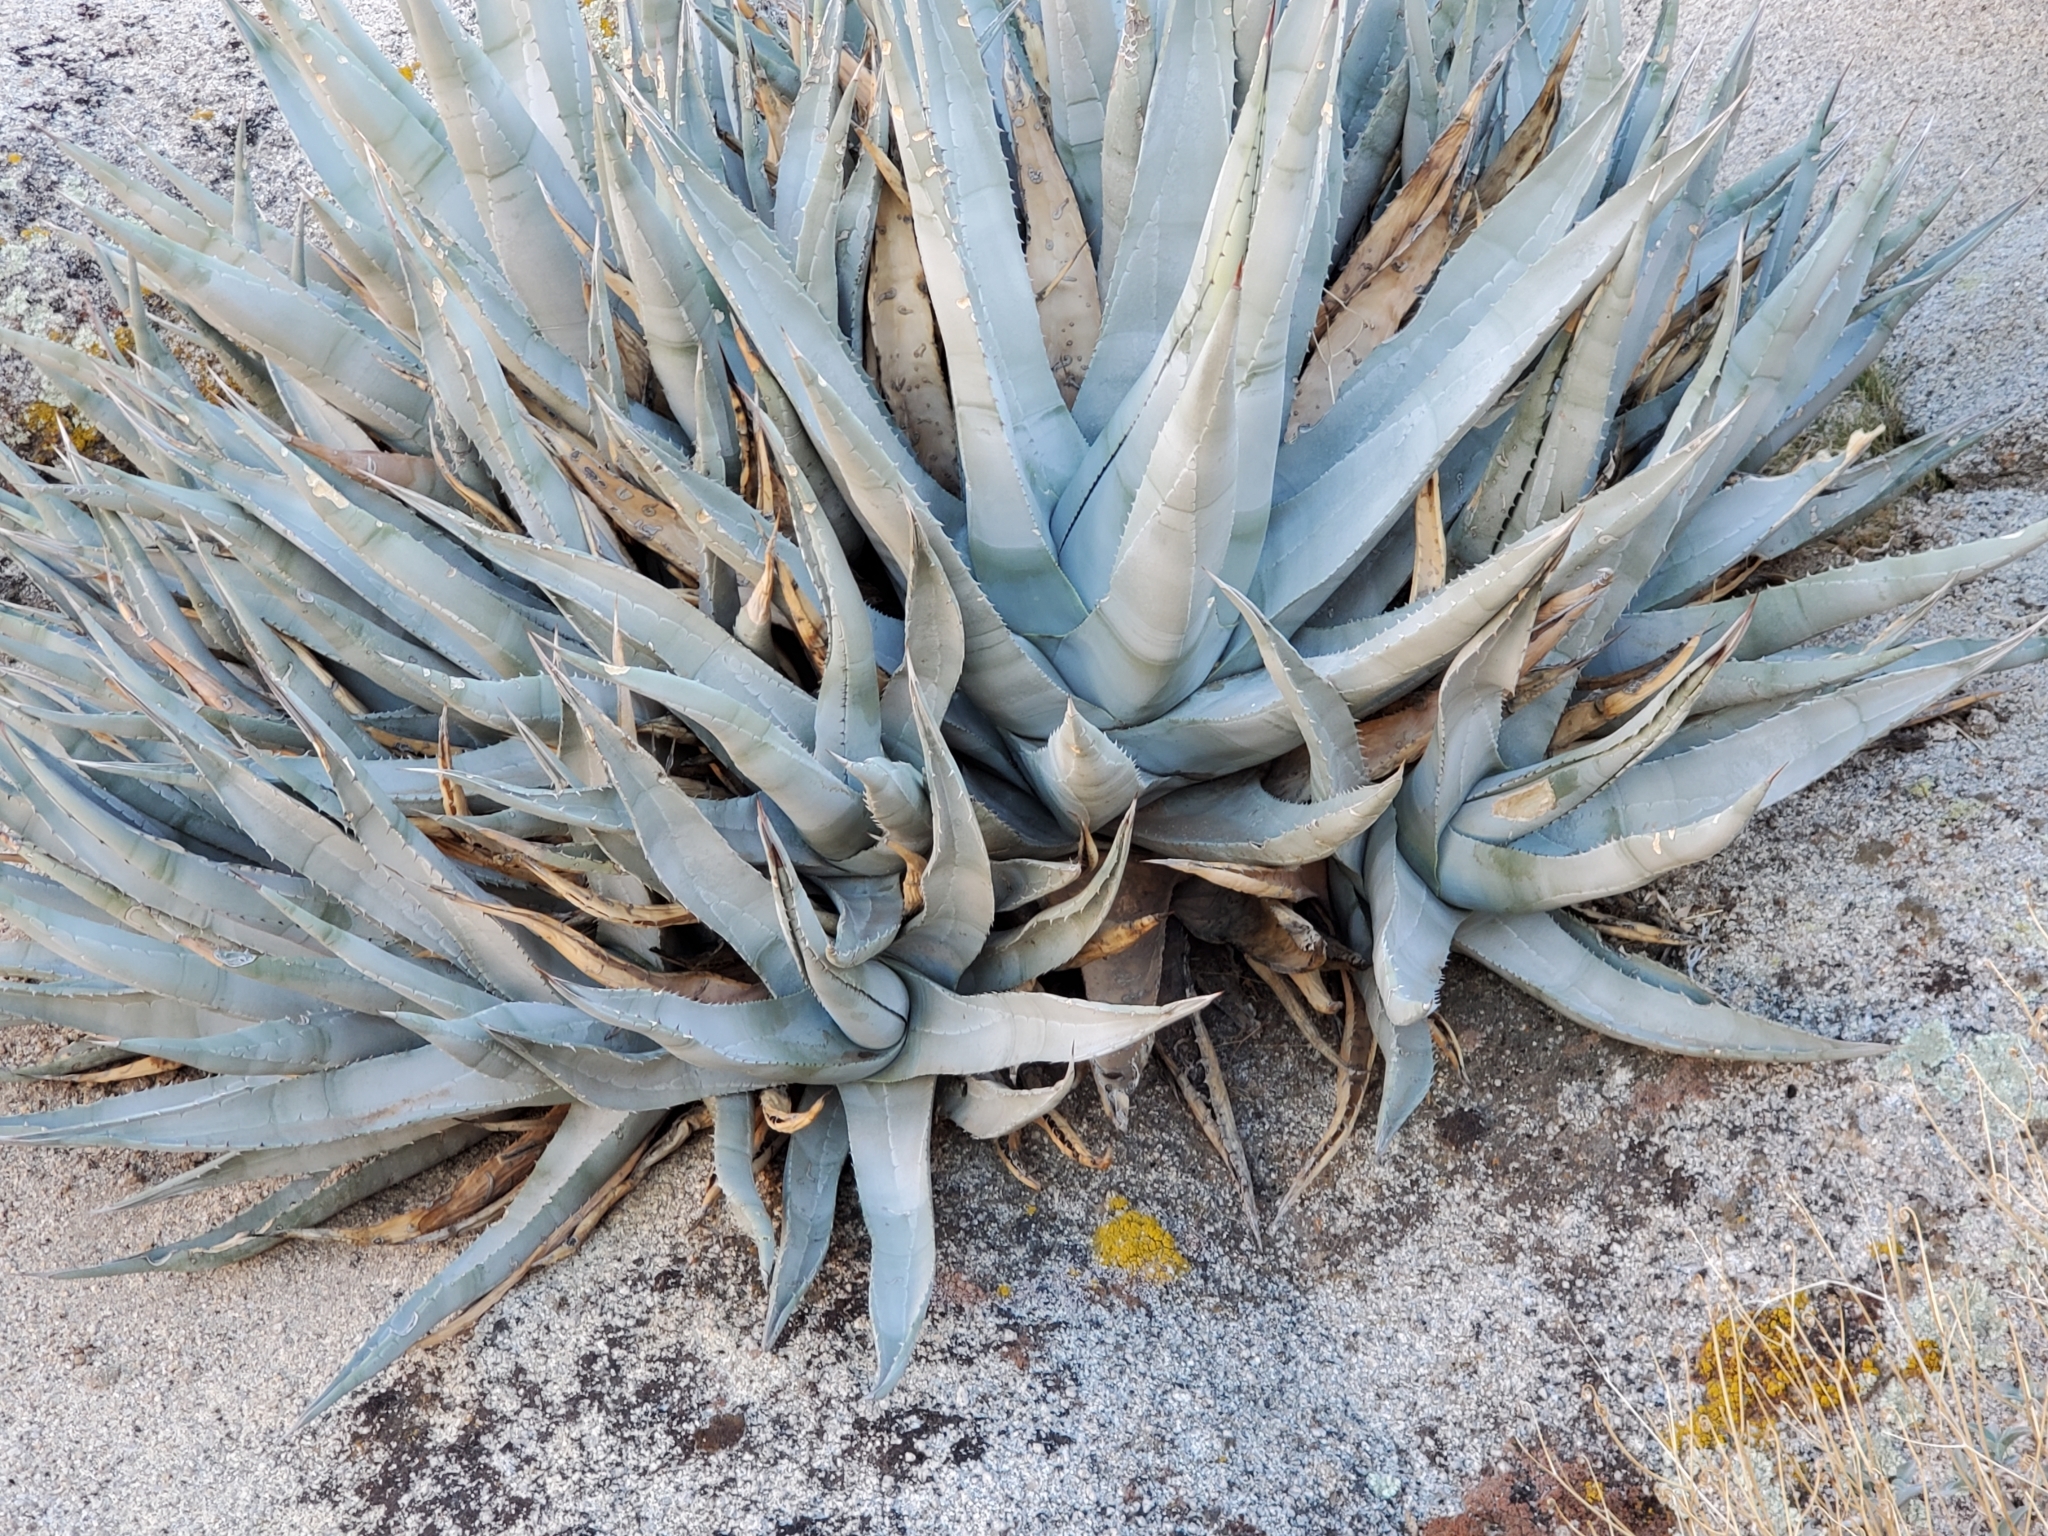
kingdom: Plantae
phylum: Tracheophyta
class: Liliopsida
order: Asparagales
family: Asparagaceae
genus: Agave
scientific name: Agave deserti
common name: Desert agave
